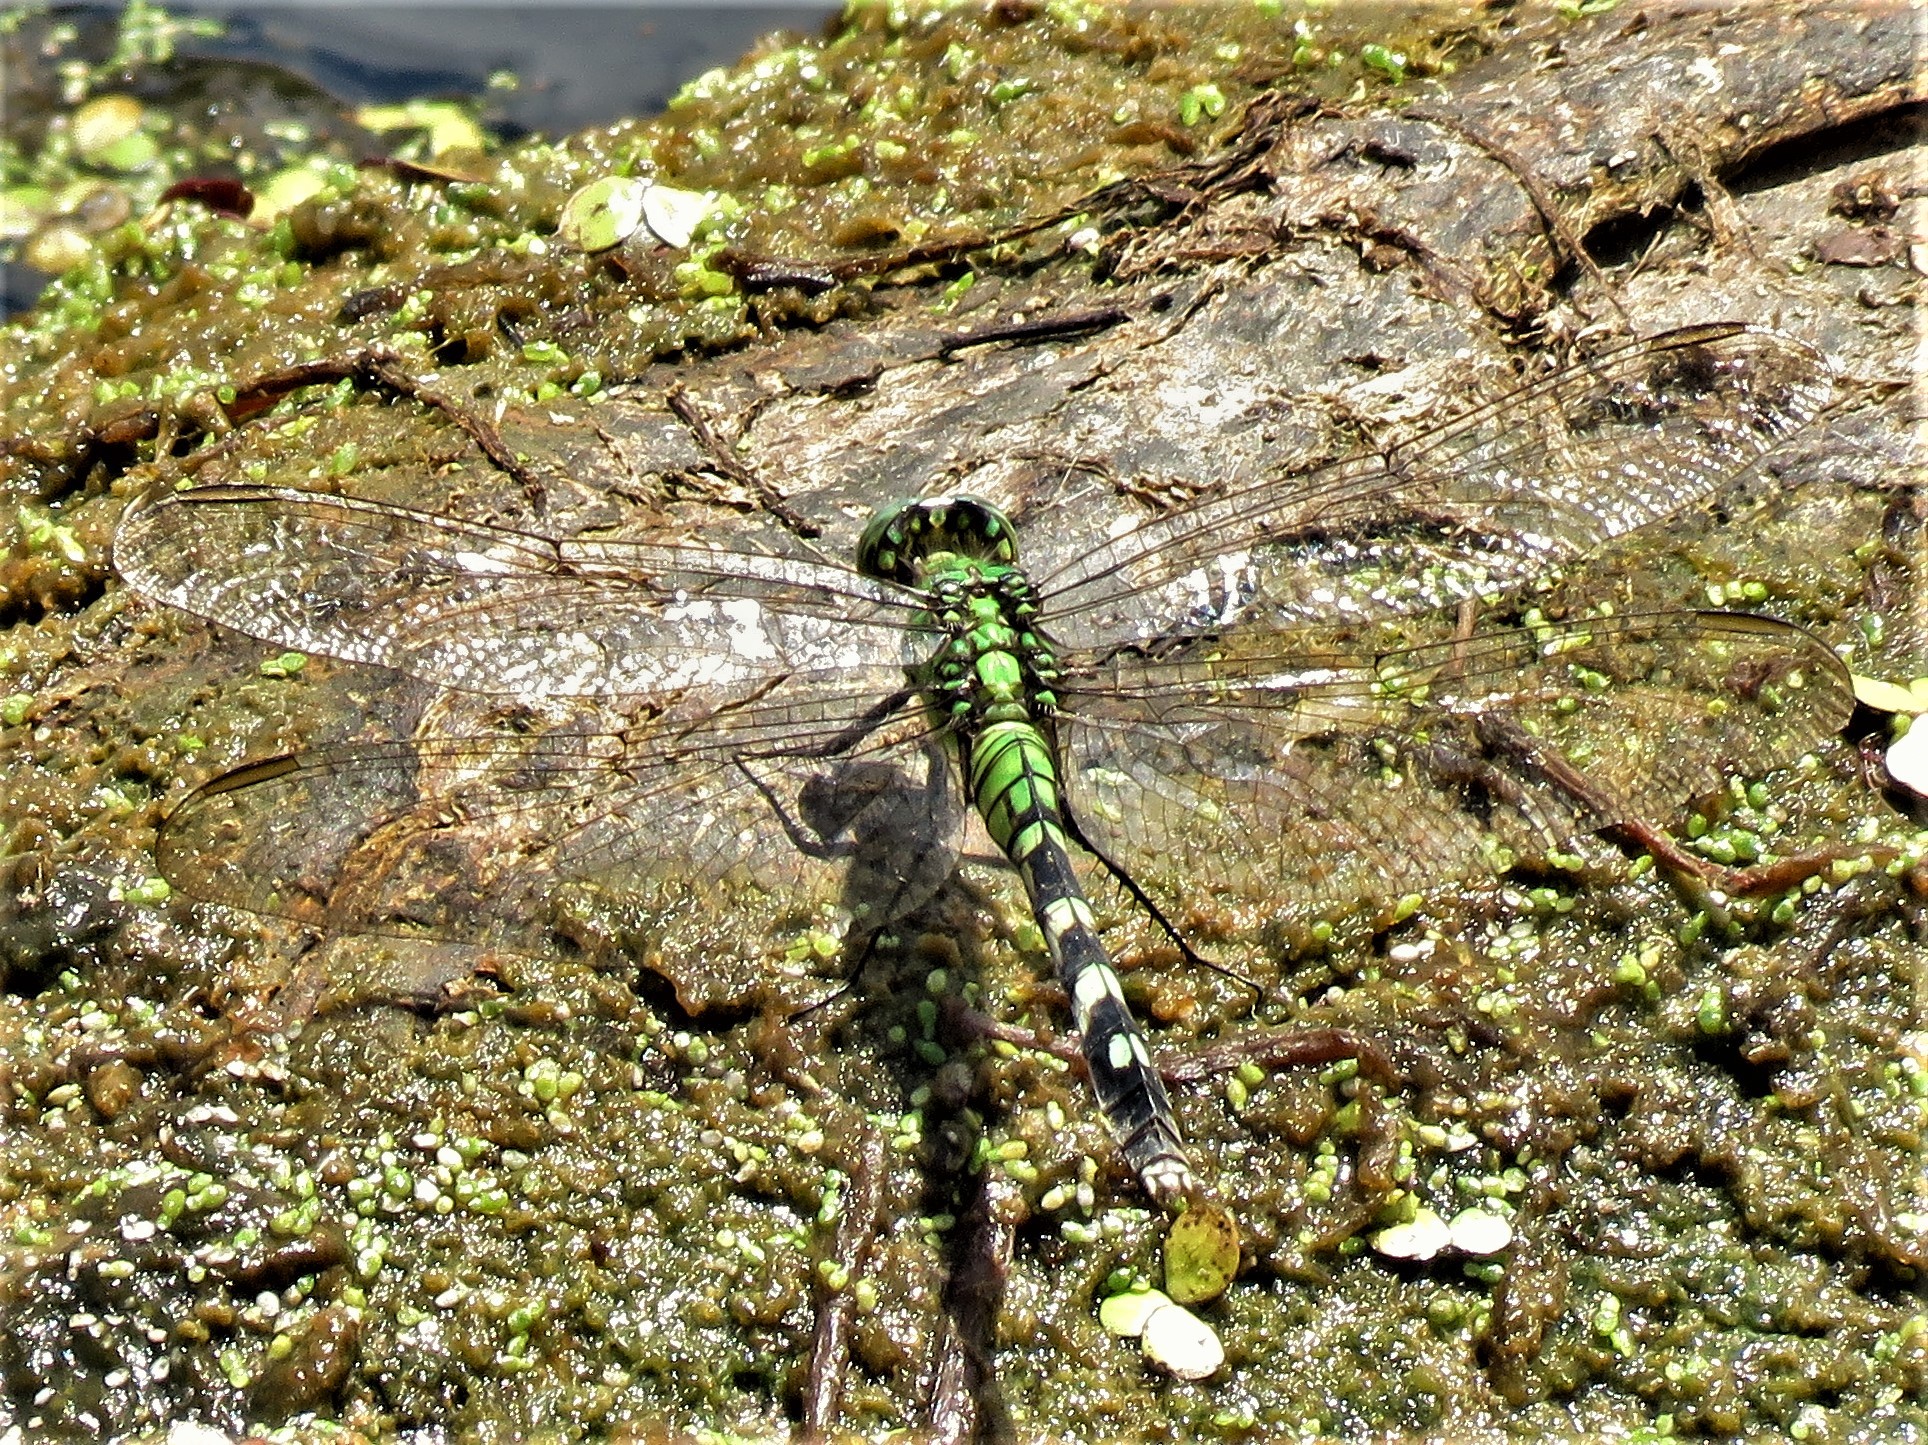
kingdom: Animalia
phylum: Arthropoda
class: Insecta
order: Odonata
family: Libellulidae
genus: Erythemis
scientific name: Erythemis simplicicollis
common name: Eastern pondhawk
